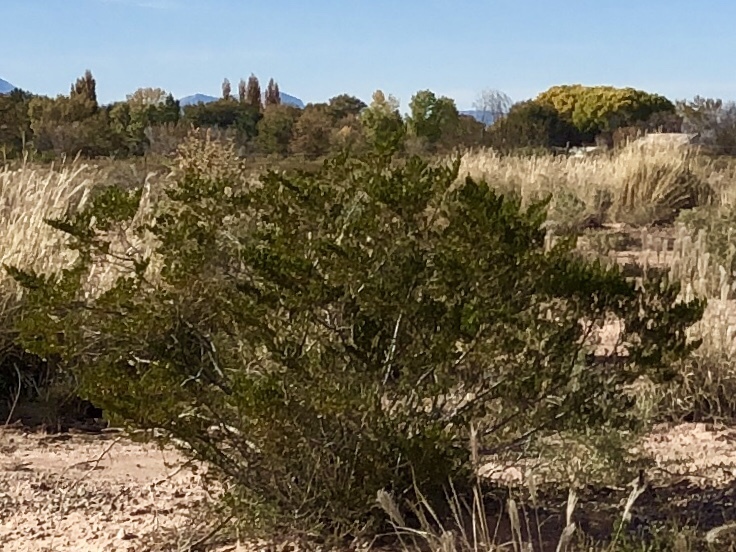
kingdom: Plantae
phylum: Tracheophyta
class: Magnoliopsida
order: Zygophyllales
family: Zygophyllaceae
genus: Larrea
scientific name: Larrea tridentata
